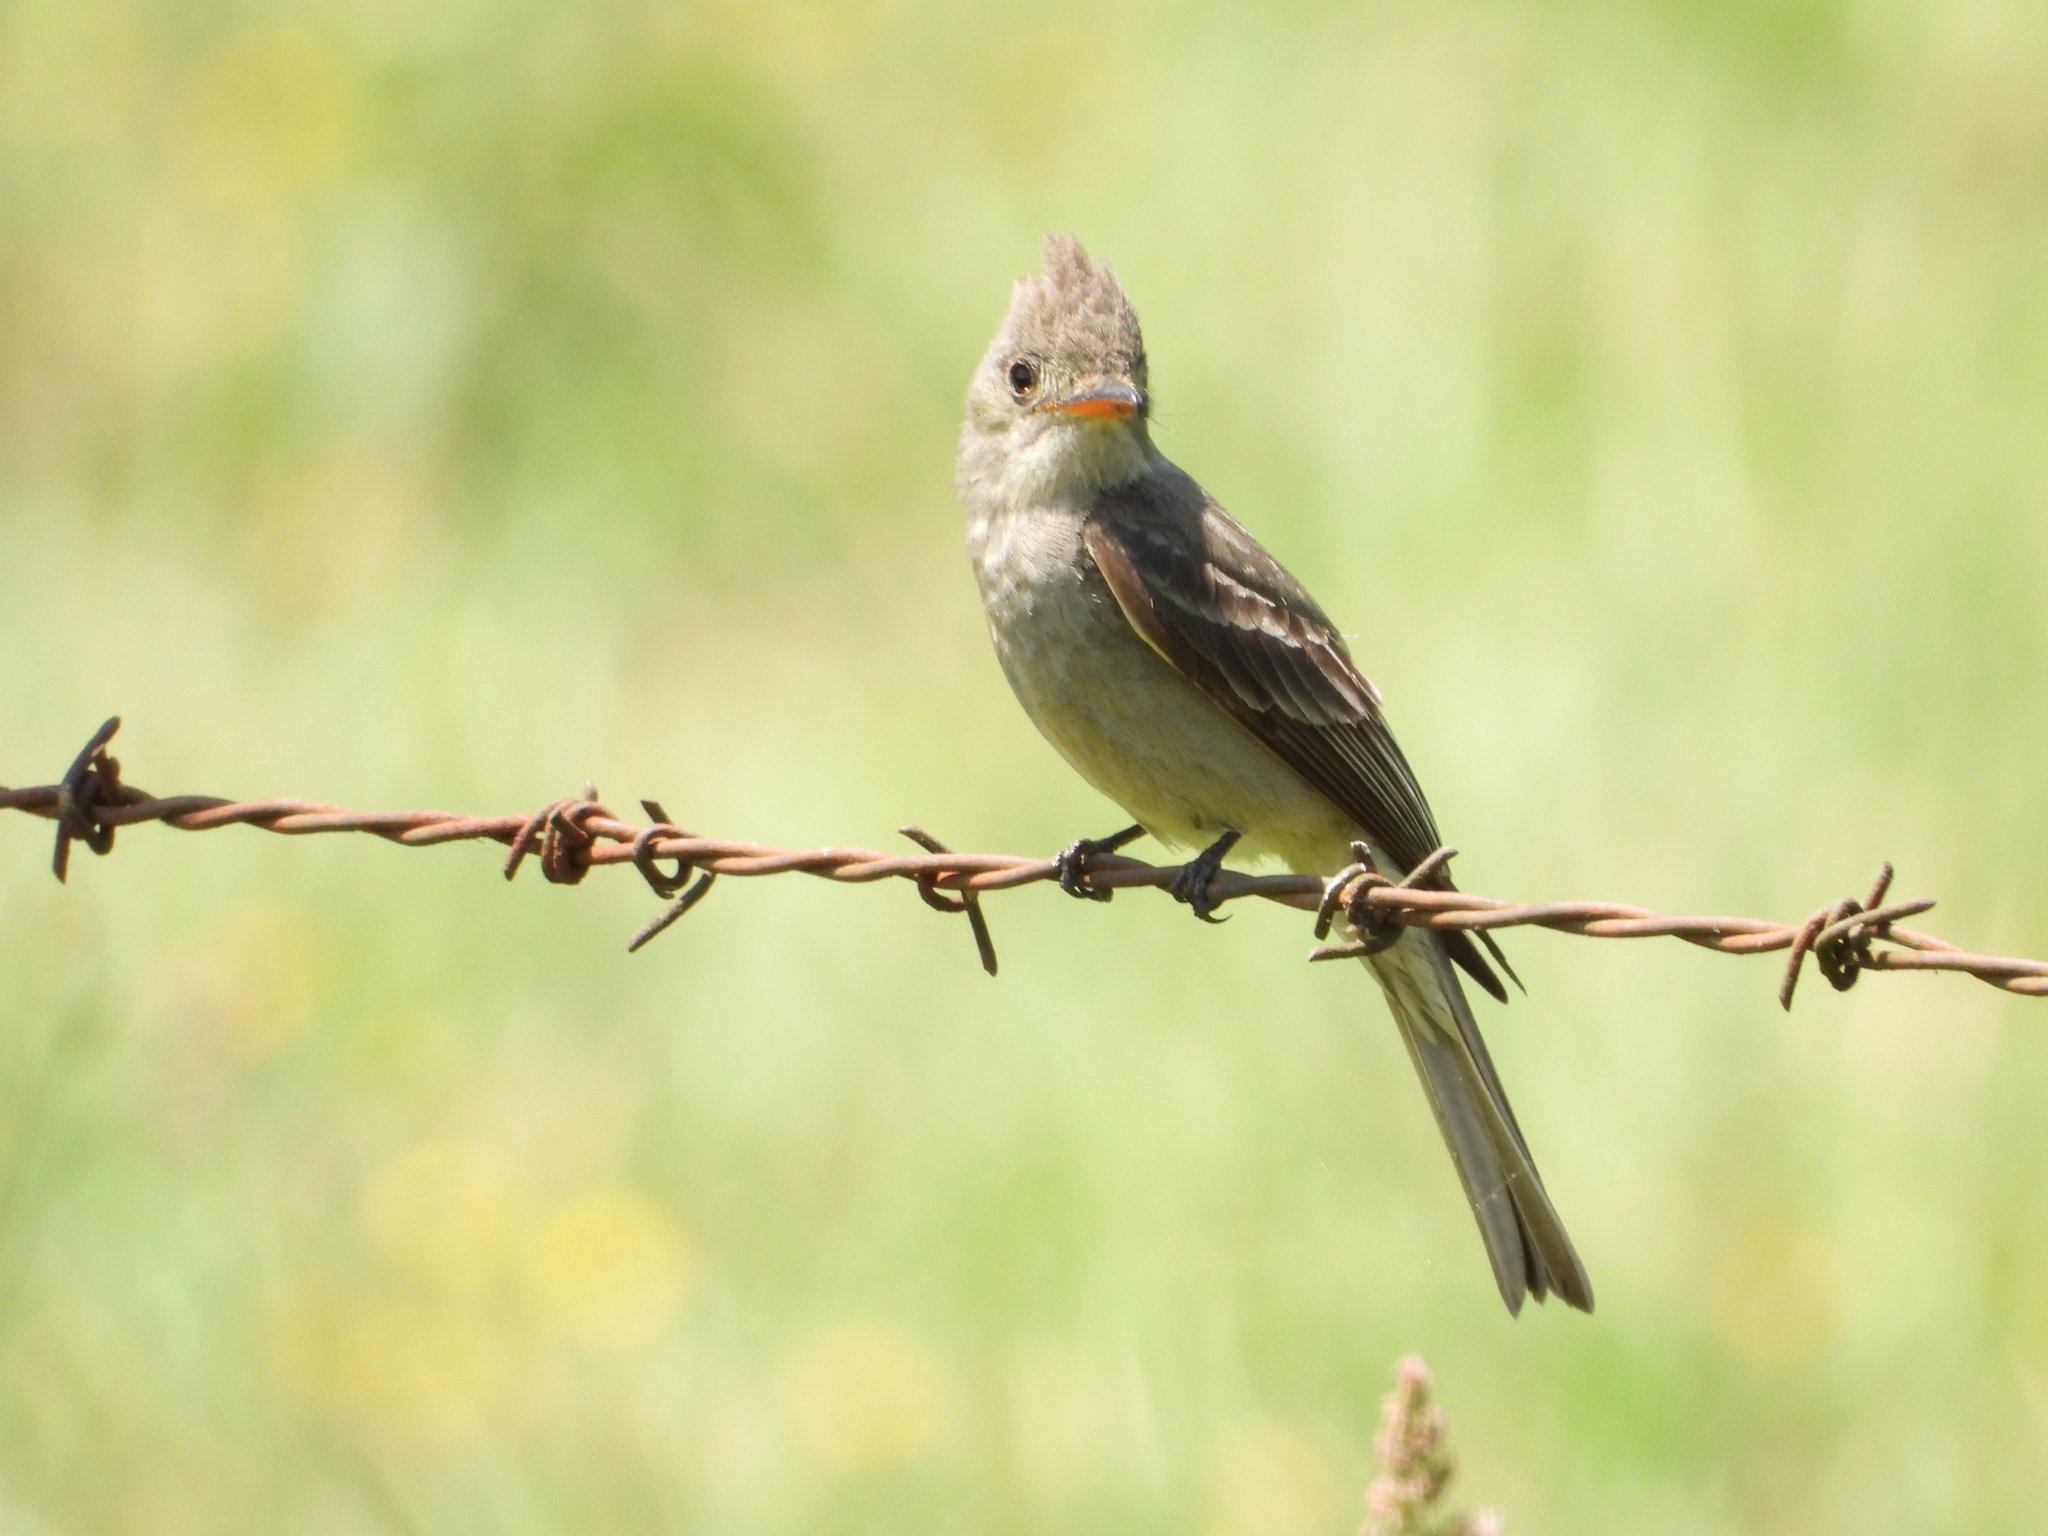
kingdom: Animalia
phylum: Chordata
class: Aves
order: Passeriformes
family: Tyrannidae
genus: Contopus
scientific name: Contopus pertinax
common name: Greater pewee
